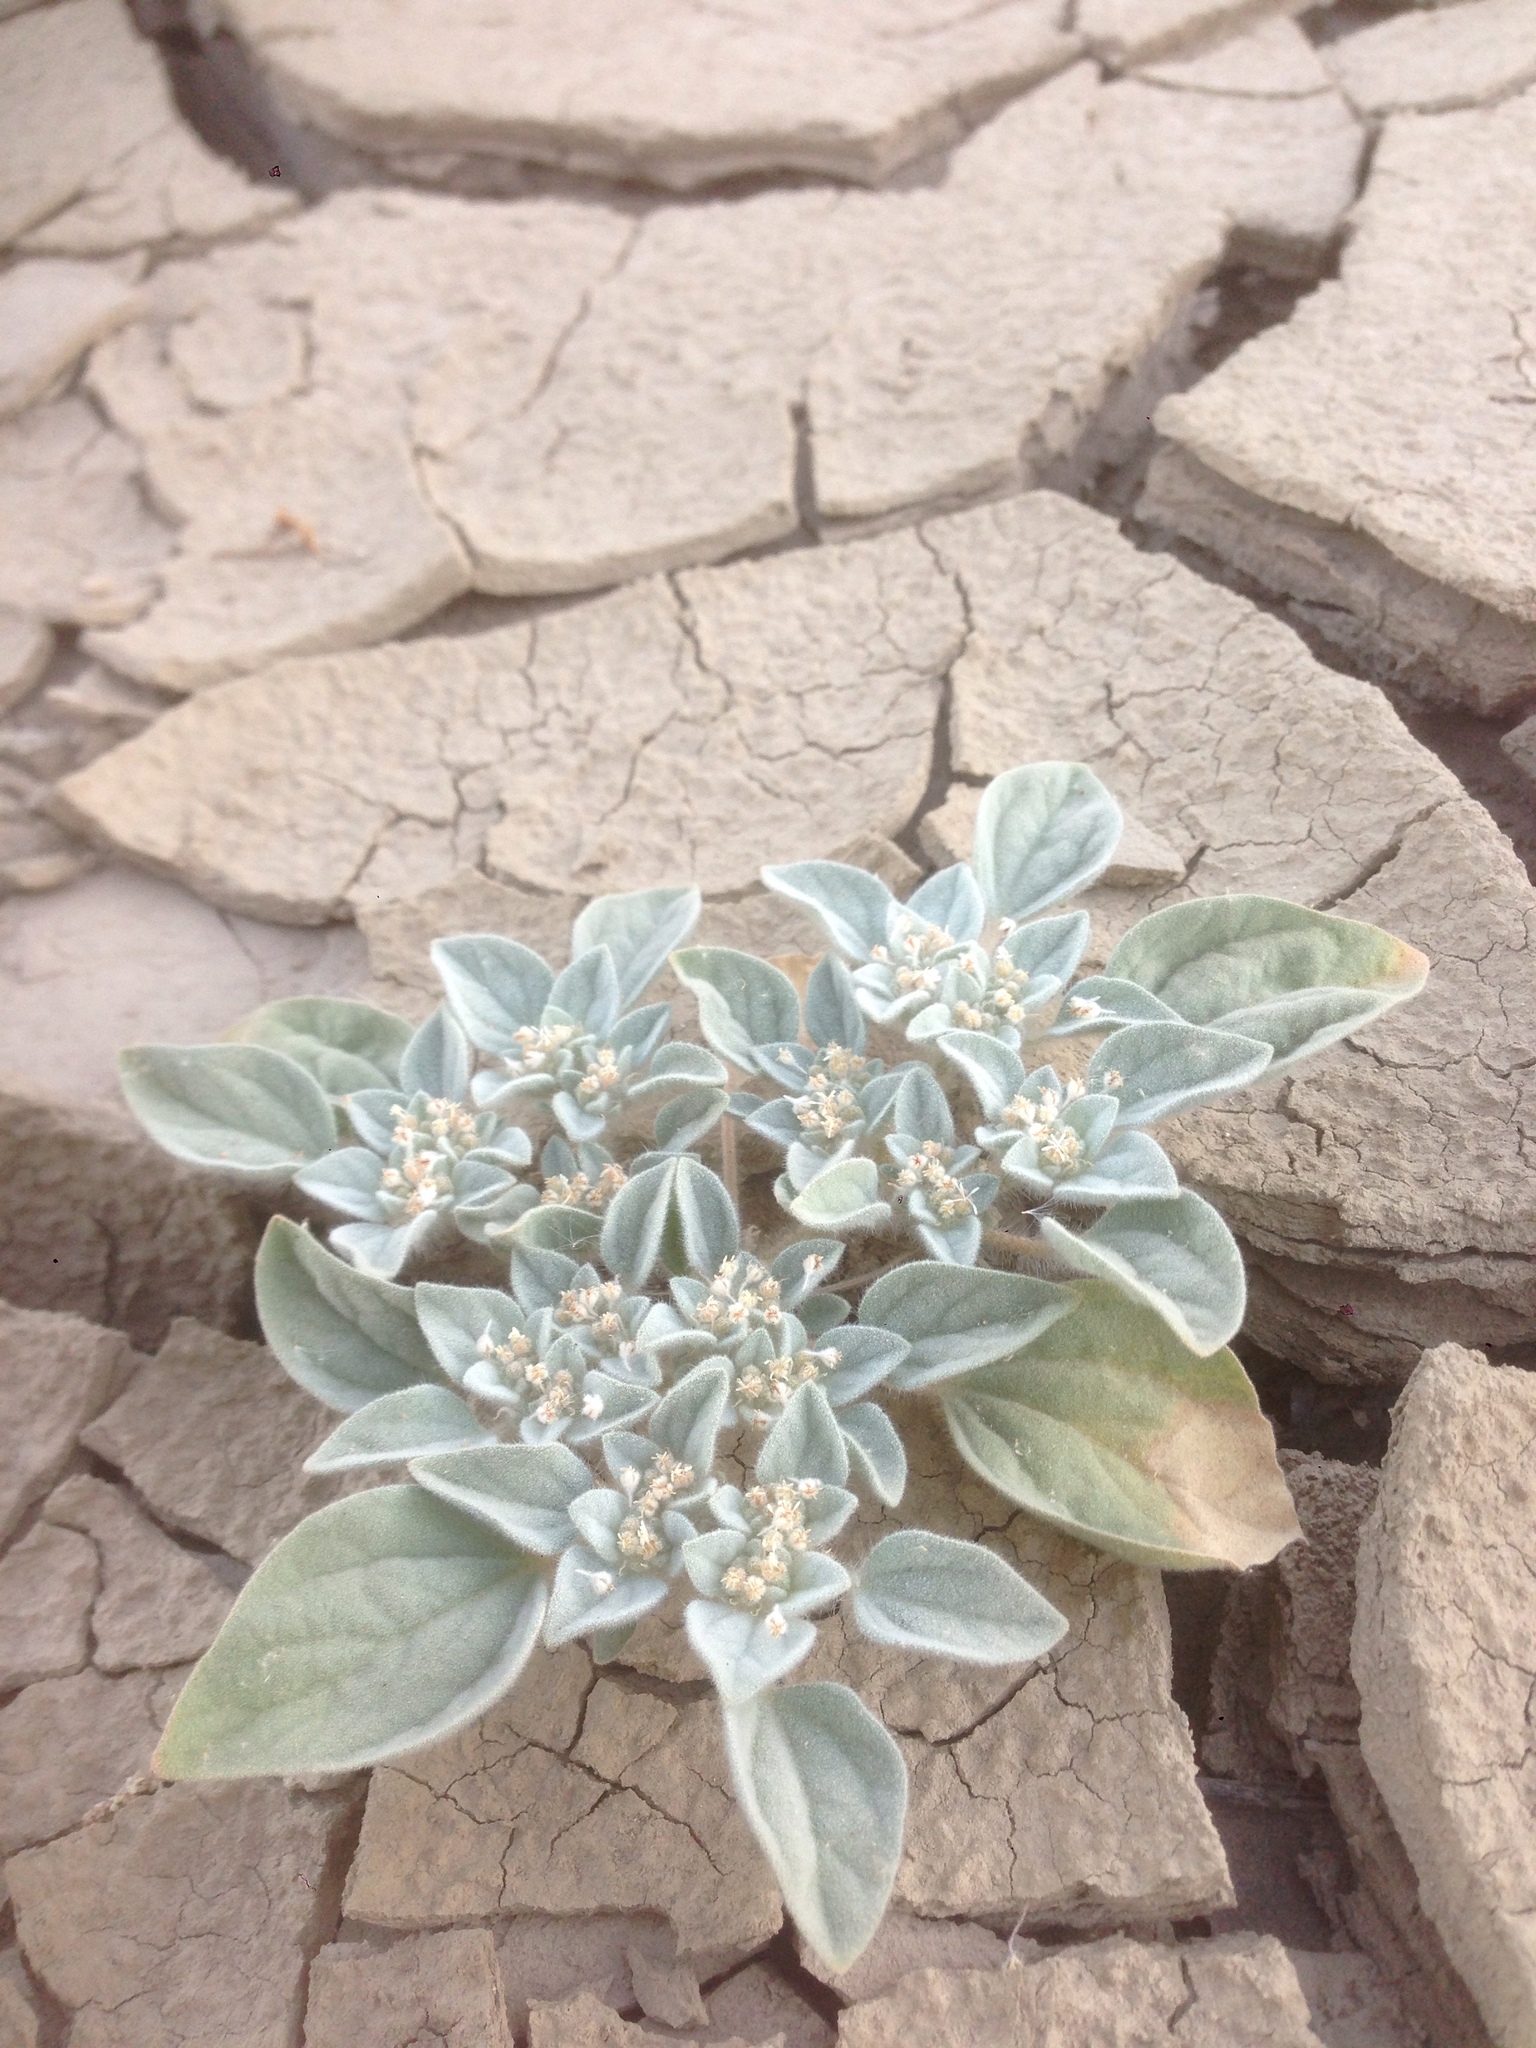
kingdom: Plantae
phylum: Tracheophyta
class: Magnoliopsida
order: Malpighiales
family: Euphorbiaceae
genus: Croton
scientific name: Croton setiger
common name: Dove weed
